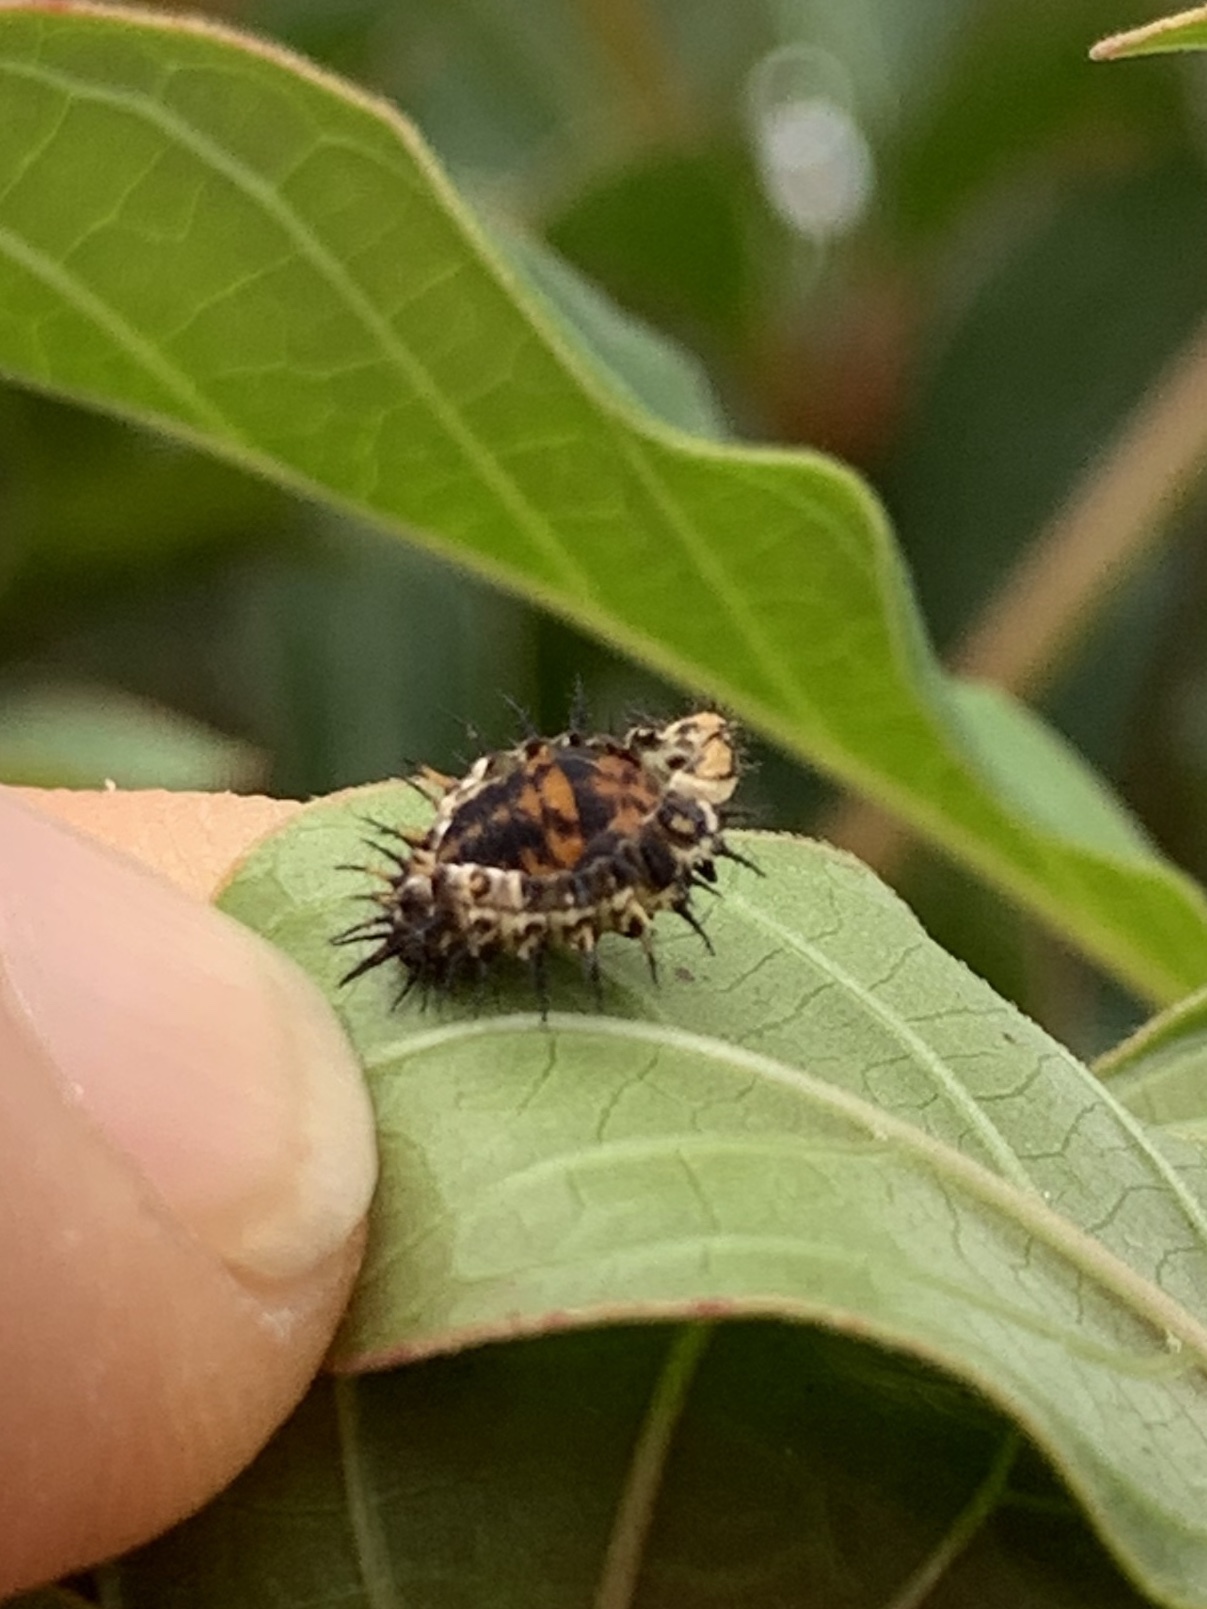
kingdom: Animalia
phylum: Arthropoda
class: Insecta
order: Coleoptera
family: Coccinellidae
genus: Curinus
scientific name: Curinus coeruleus
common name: Ladybird beetle
